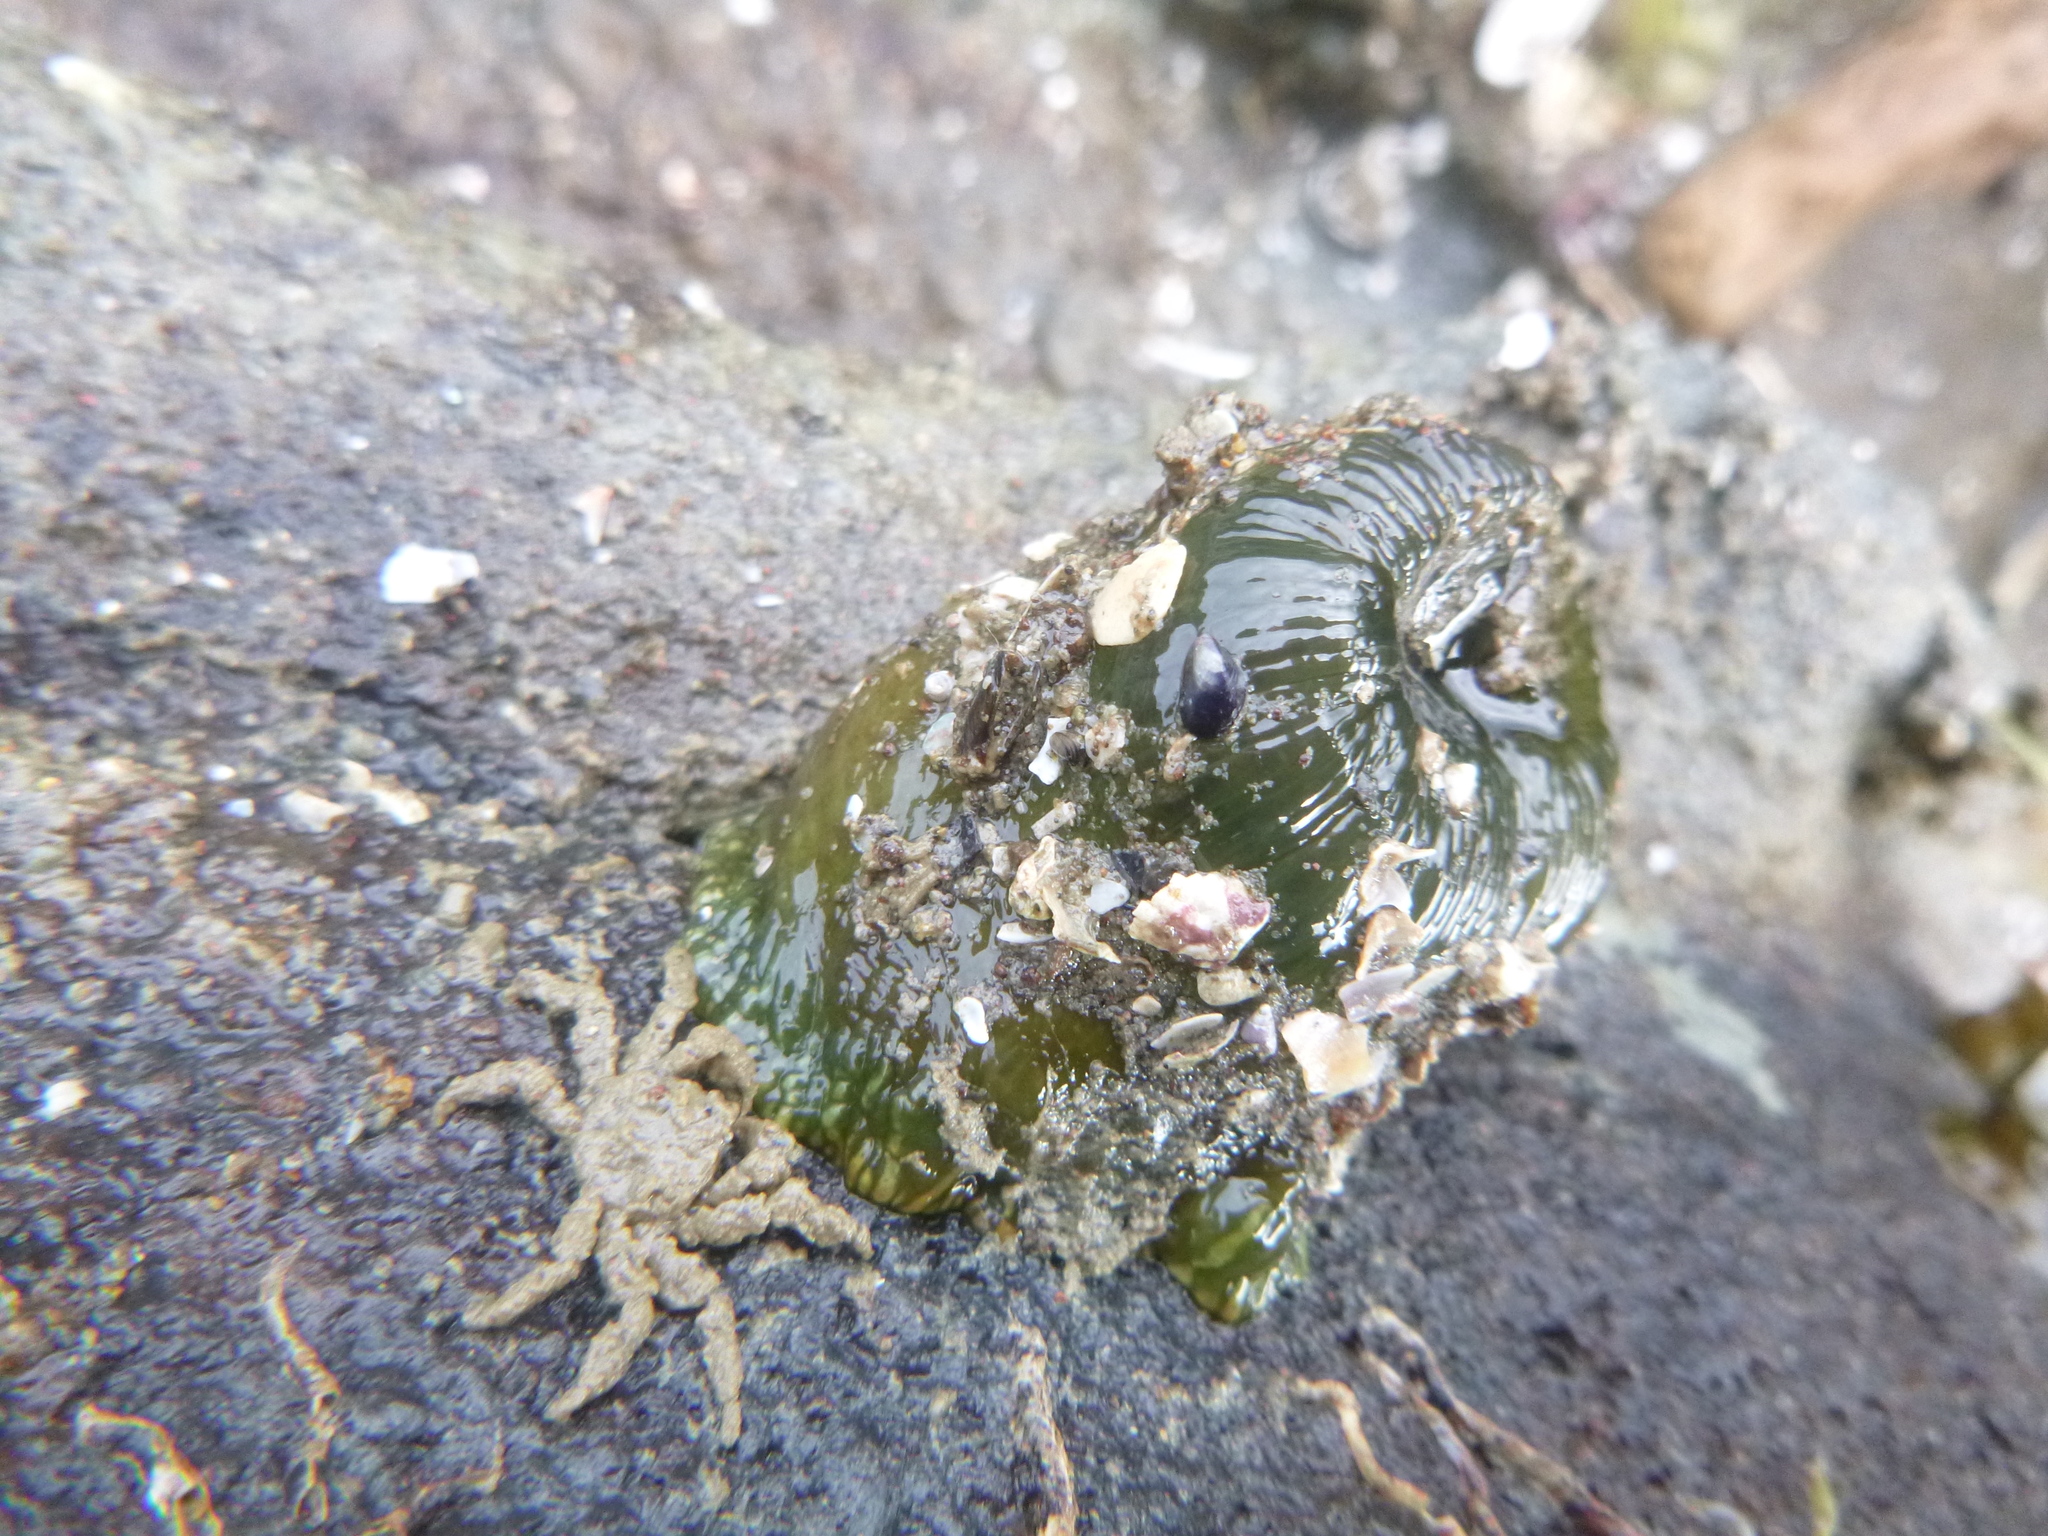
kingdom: Animalia
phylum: Arthropoda
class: Malacostraca
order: Decapoda
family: Hymenosomatidae
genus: Neohymenicus
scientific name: Neohymenicus pubescens
